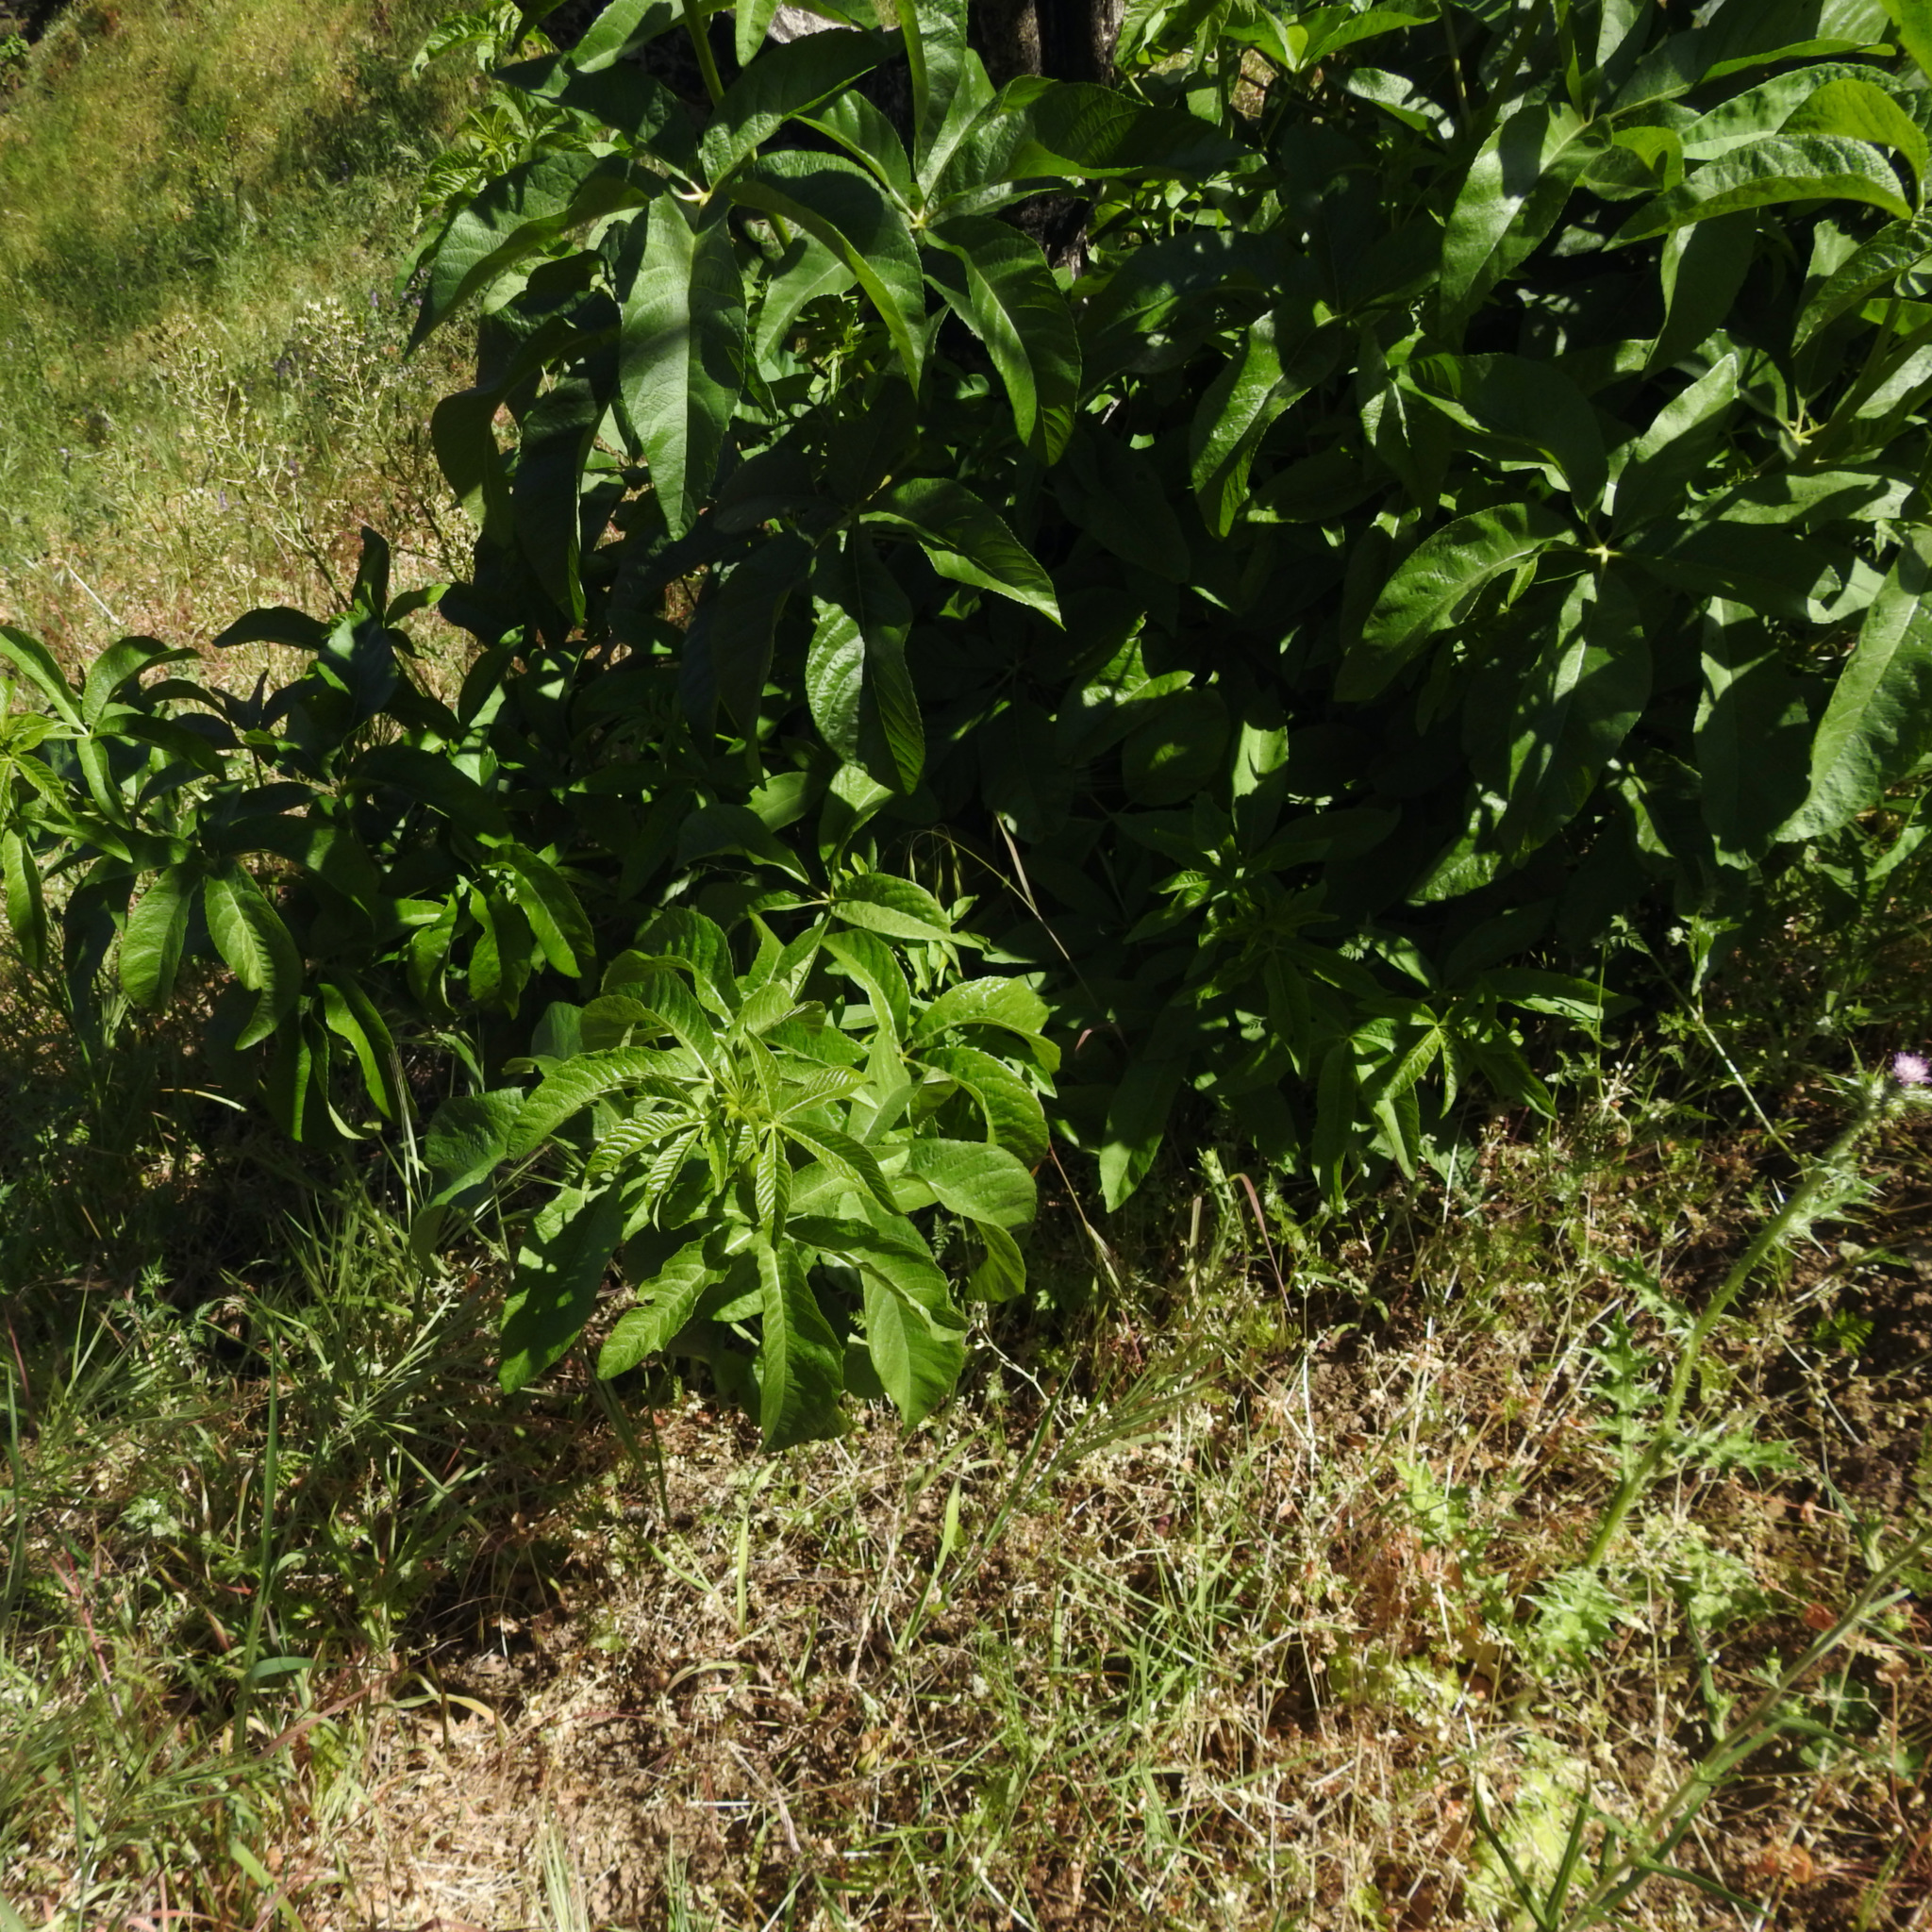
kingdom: Plantae
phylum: Tracheophyta
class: Magnoliopsida
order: Sapindales
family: Sapindaceae
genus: Aesculus
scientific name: Aesculus californica
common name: California buckeye
